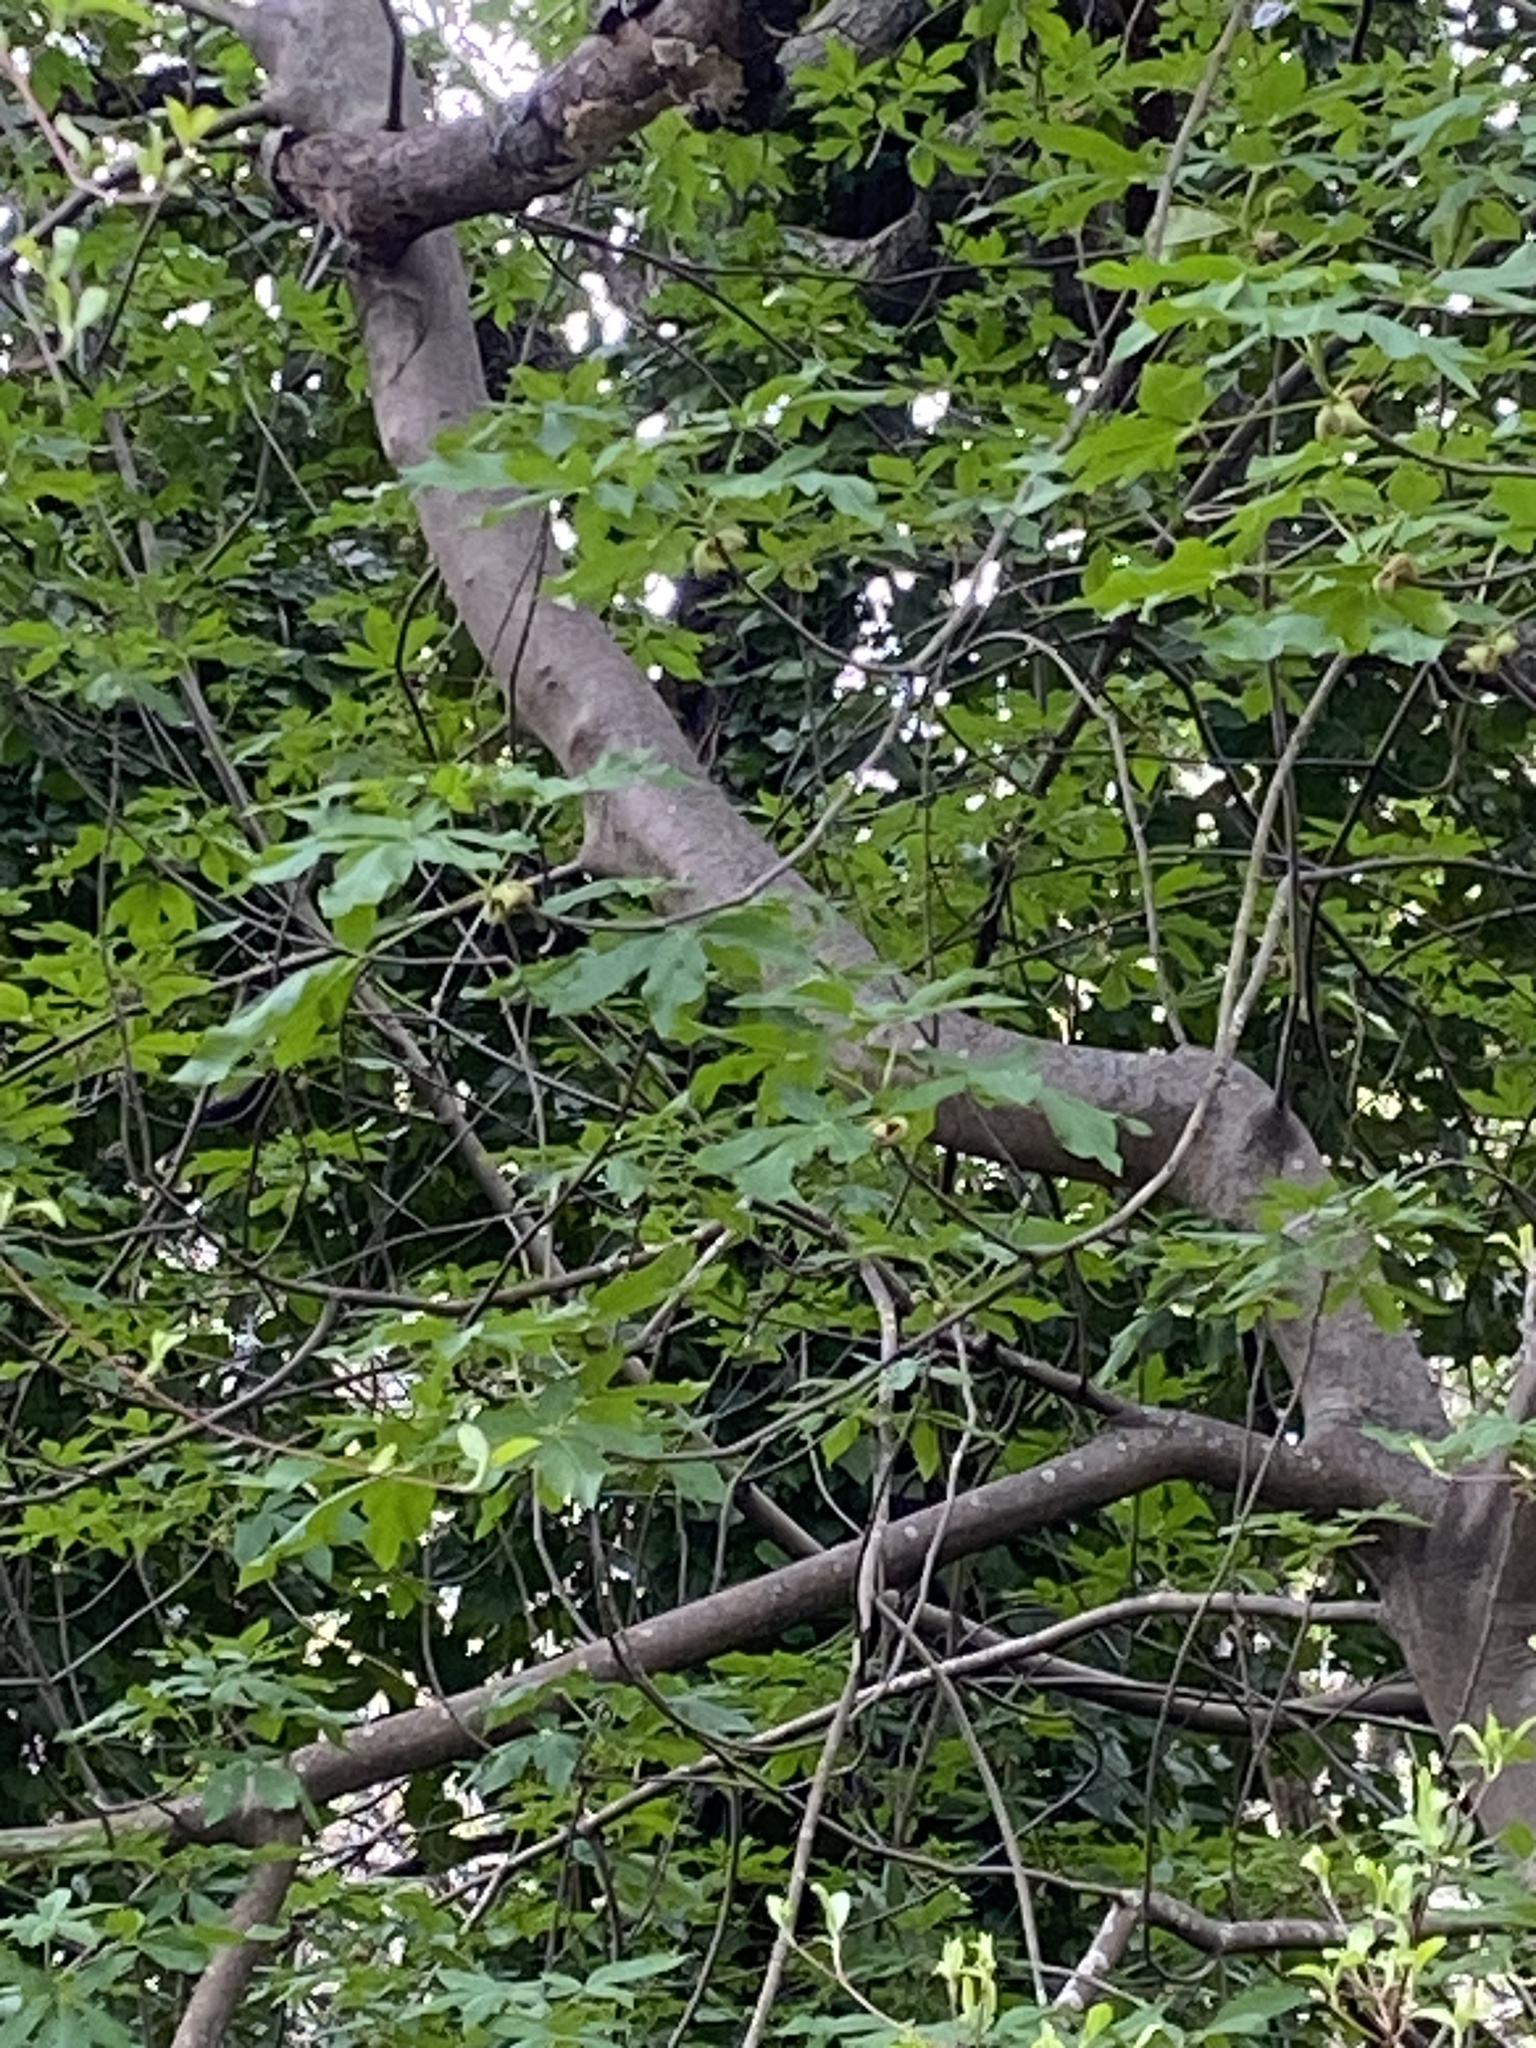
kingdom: Plantae
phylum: Tracheophyta
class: Magnoliopsida
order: Sapindales
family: Sapindaceae
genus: Aesculus
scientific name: Aesculus californica
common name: California buckeye
